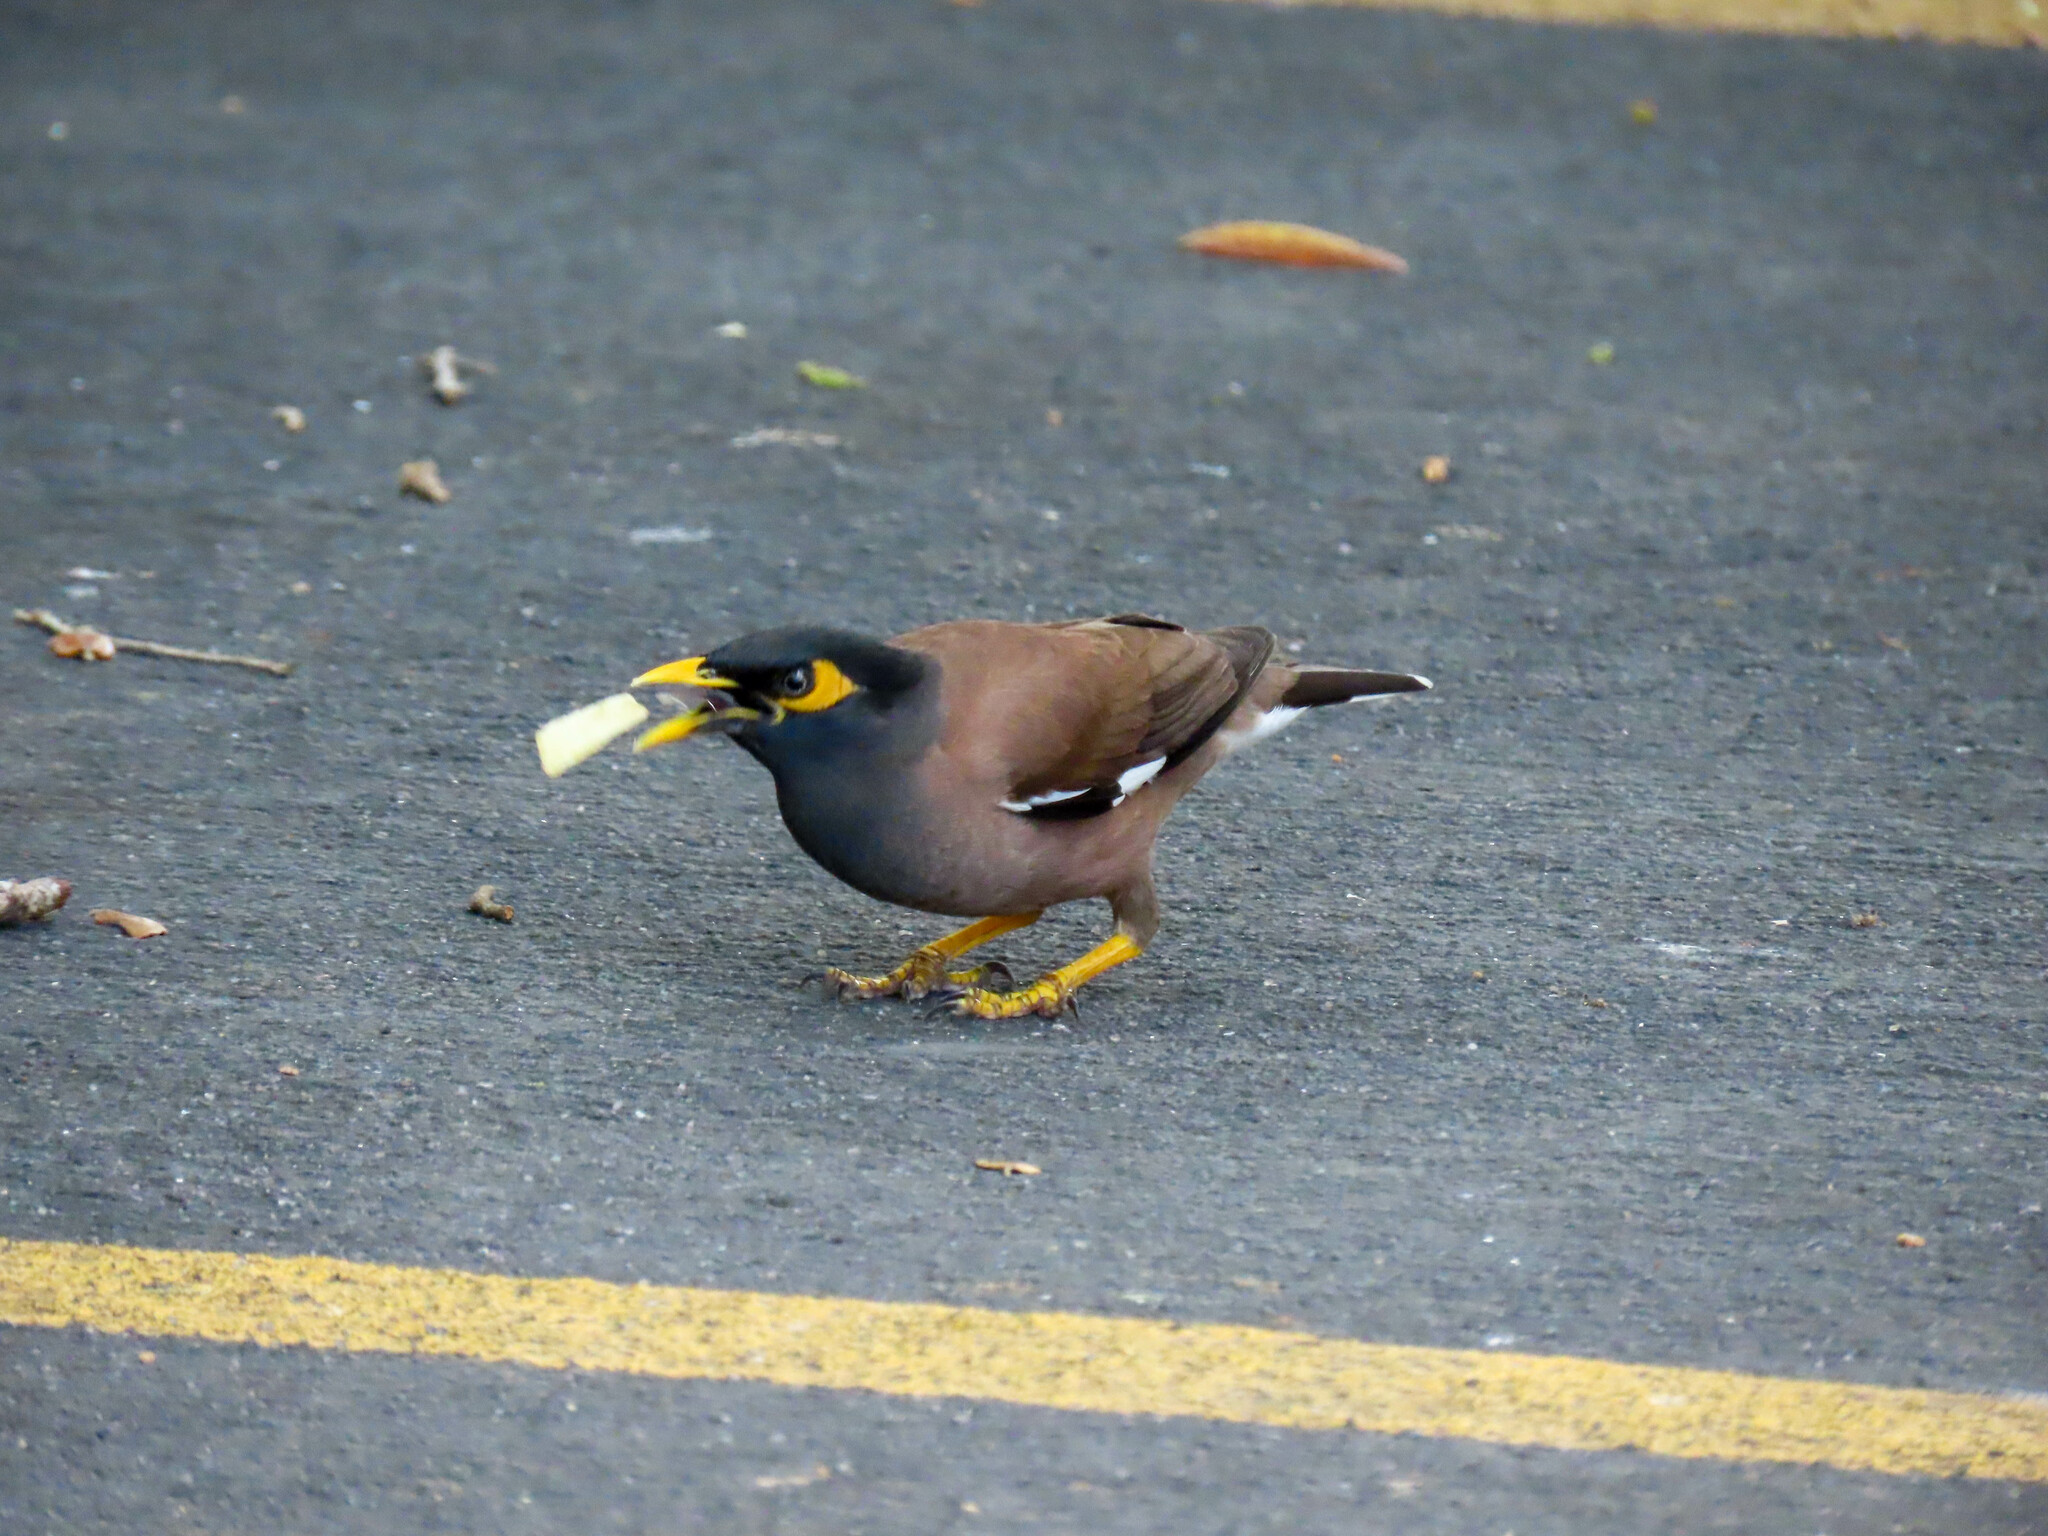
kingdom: Animalia
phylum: Chordata
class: Aves
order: Passeriformes
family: Sturnidae
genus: Acridotheres
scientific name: Acridotheres tristis
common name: Common myna
